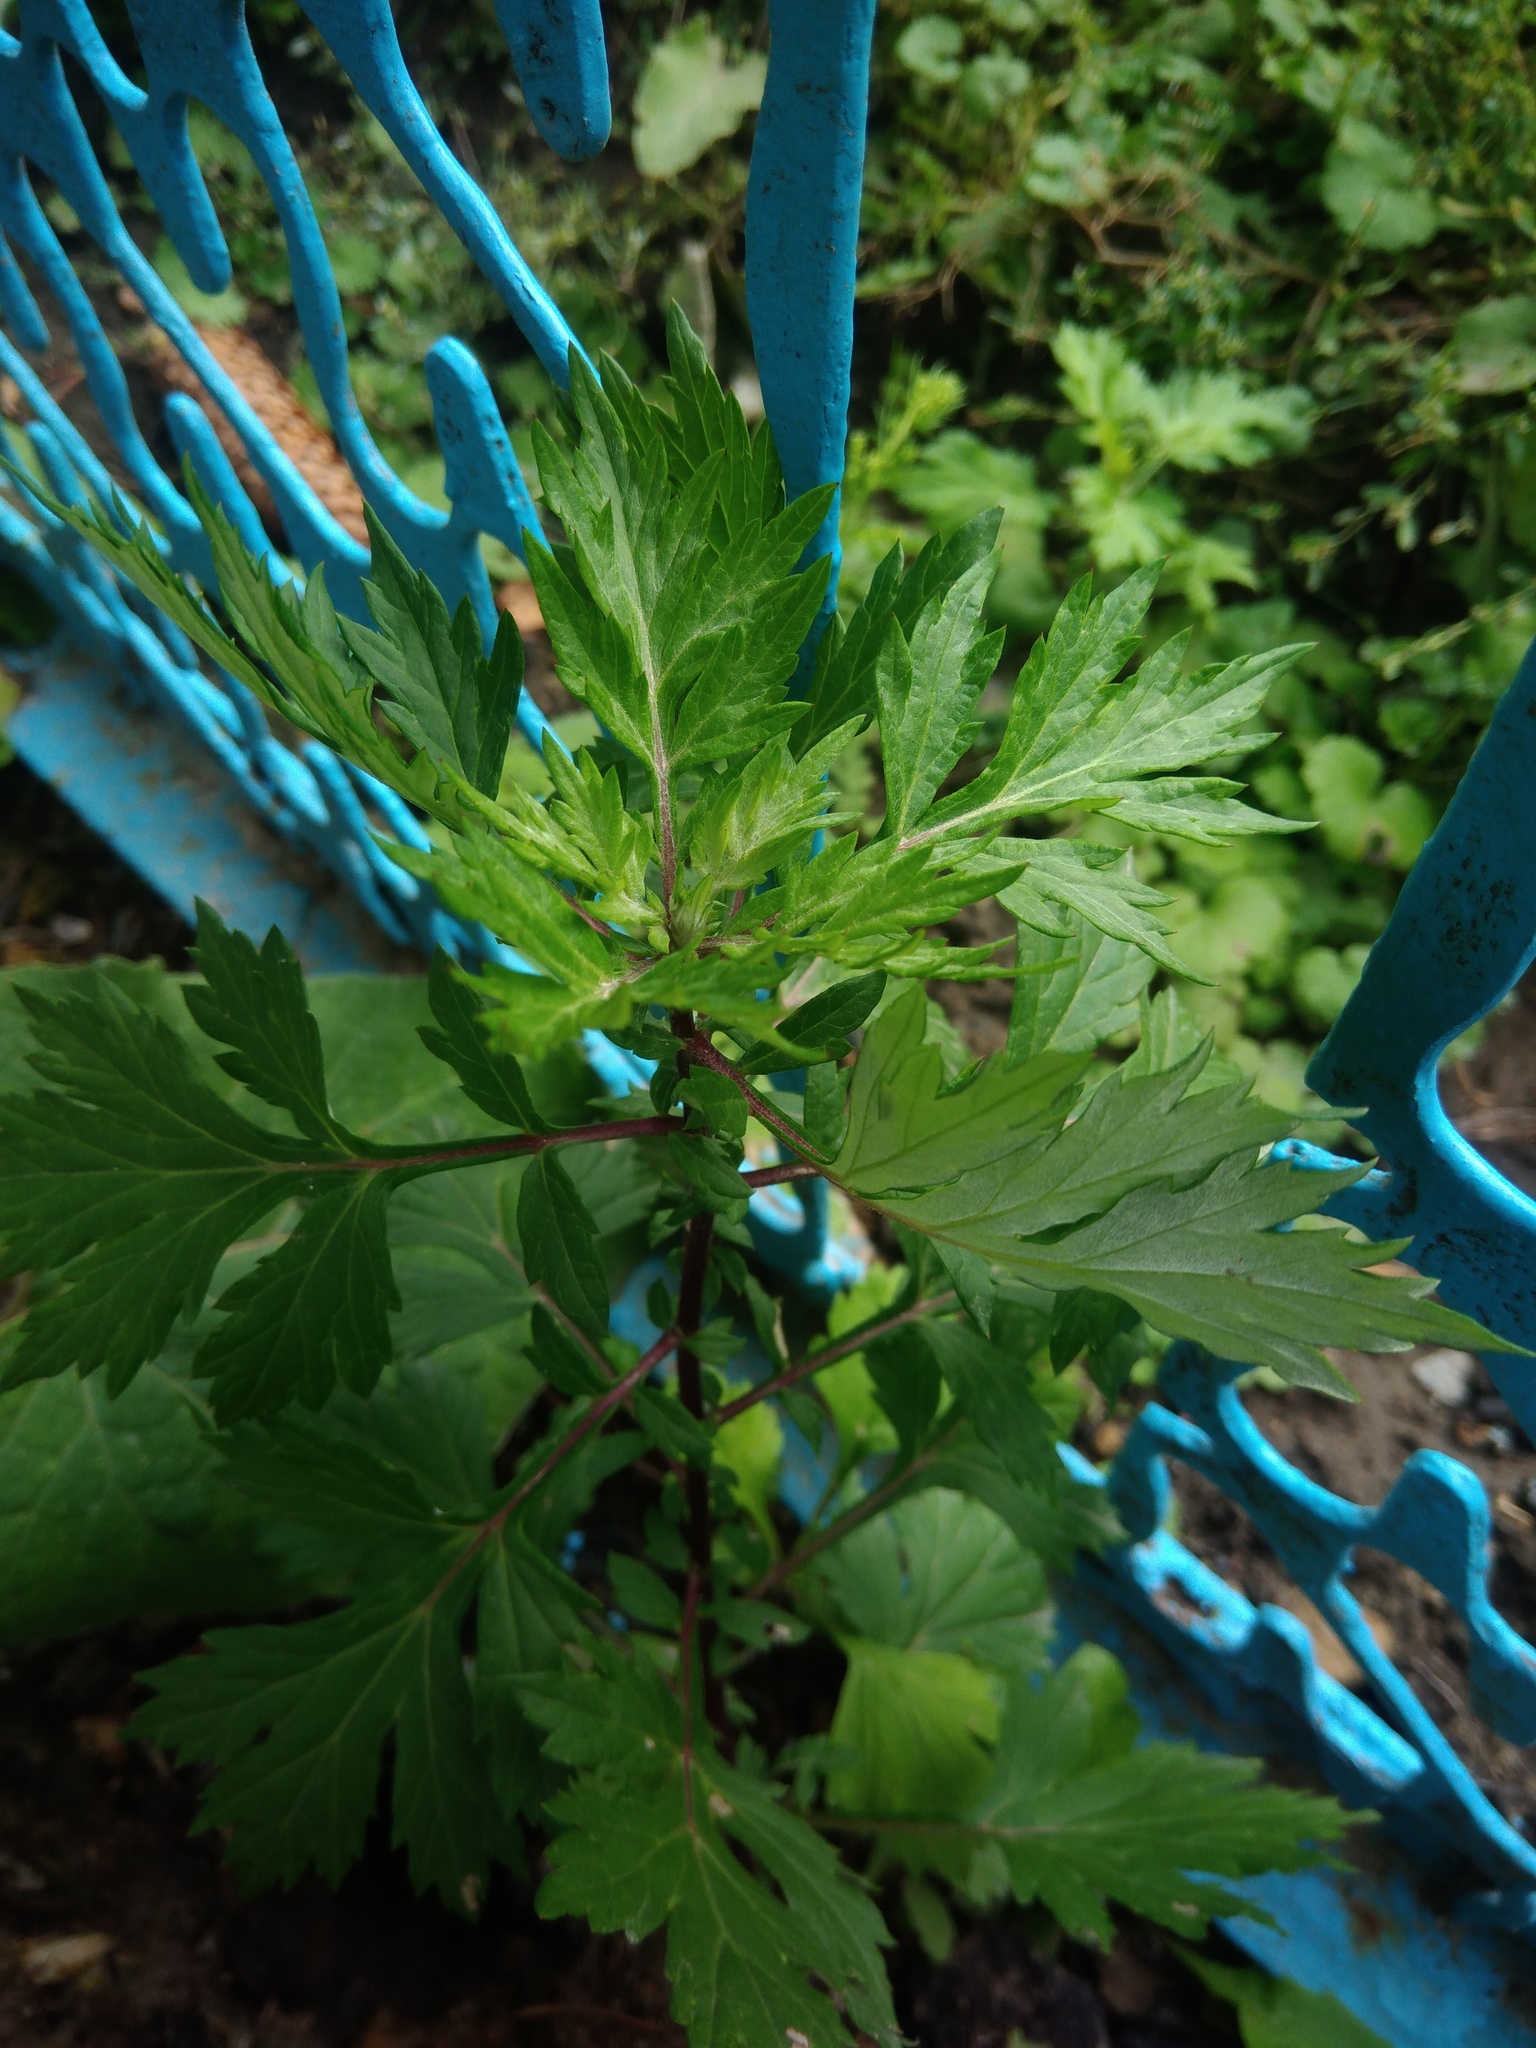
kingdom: Plantae
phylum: Tracheophyta
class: Magnoliopsida
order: Asterales
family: Asteraceae
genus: Artemisia
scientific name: Artemisia vulgaris
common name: Mugwort
